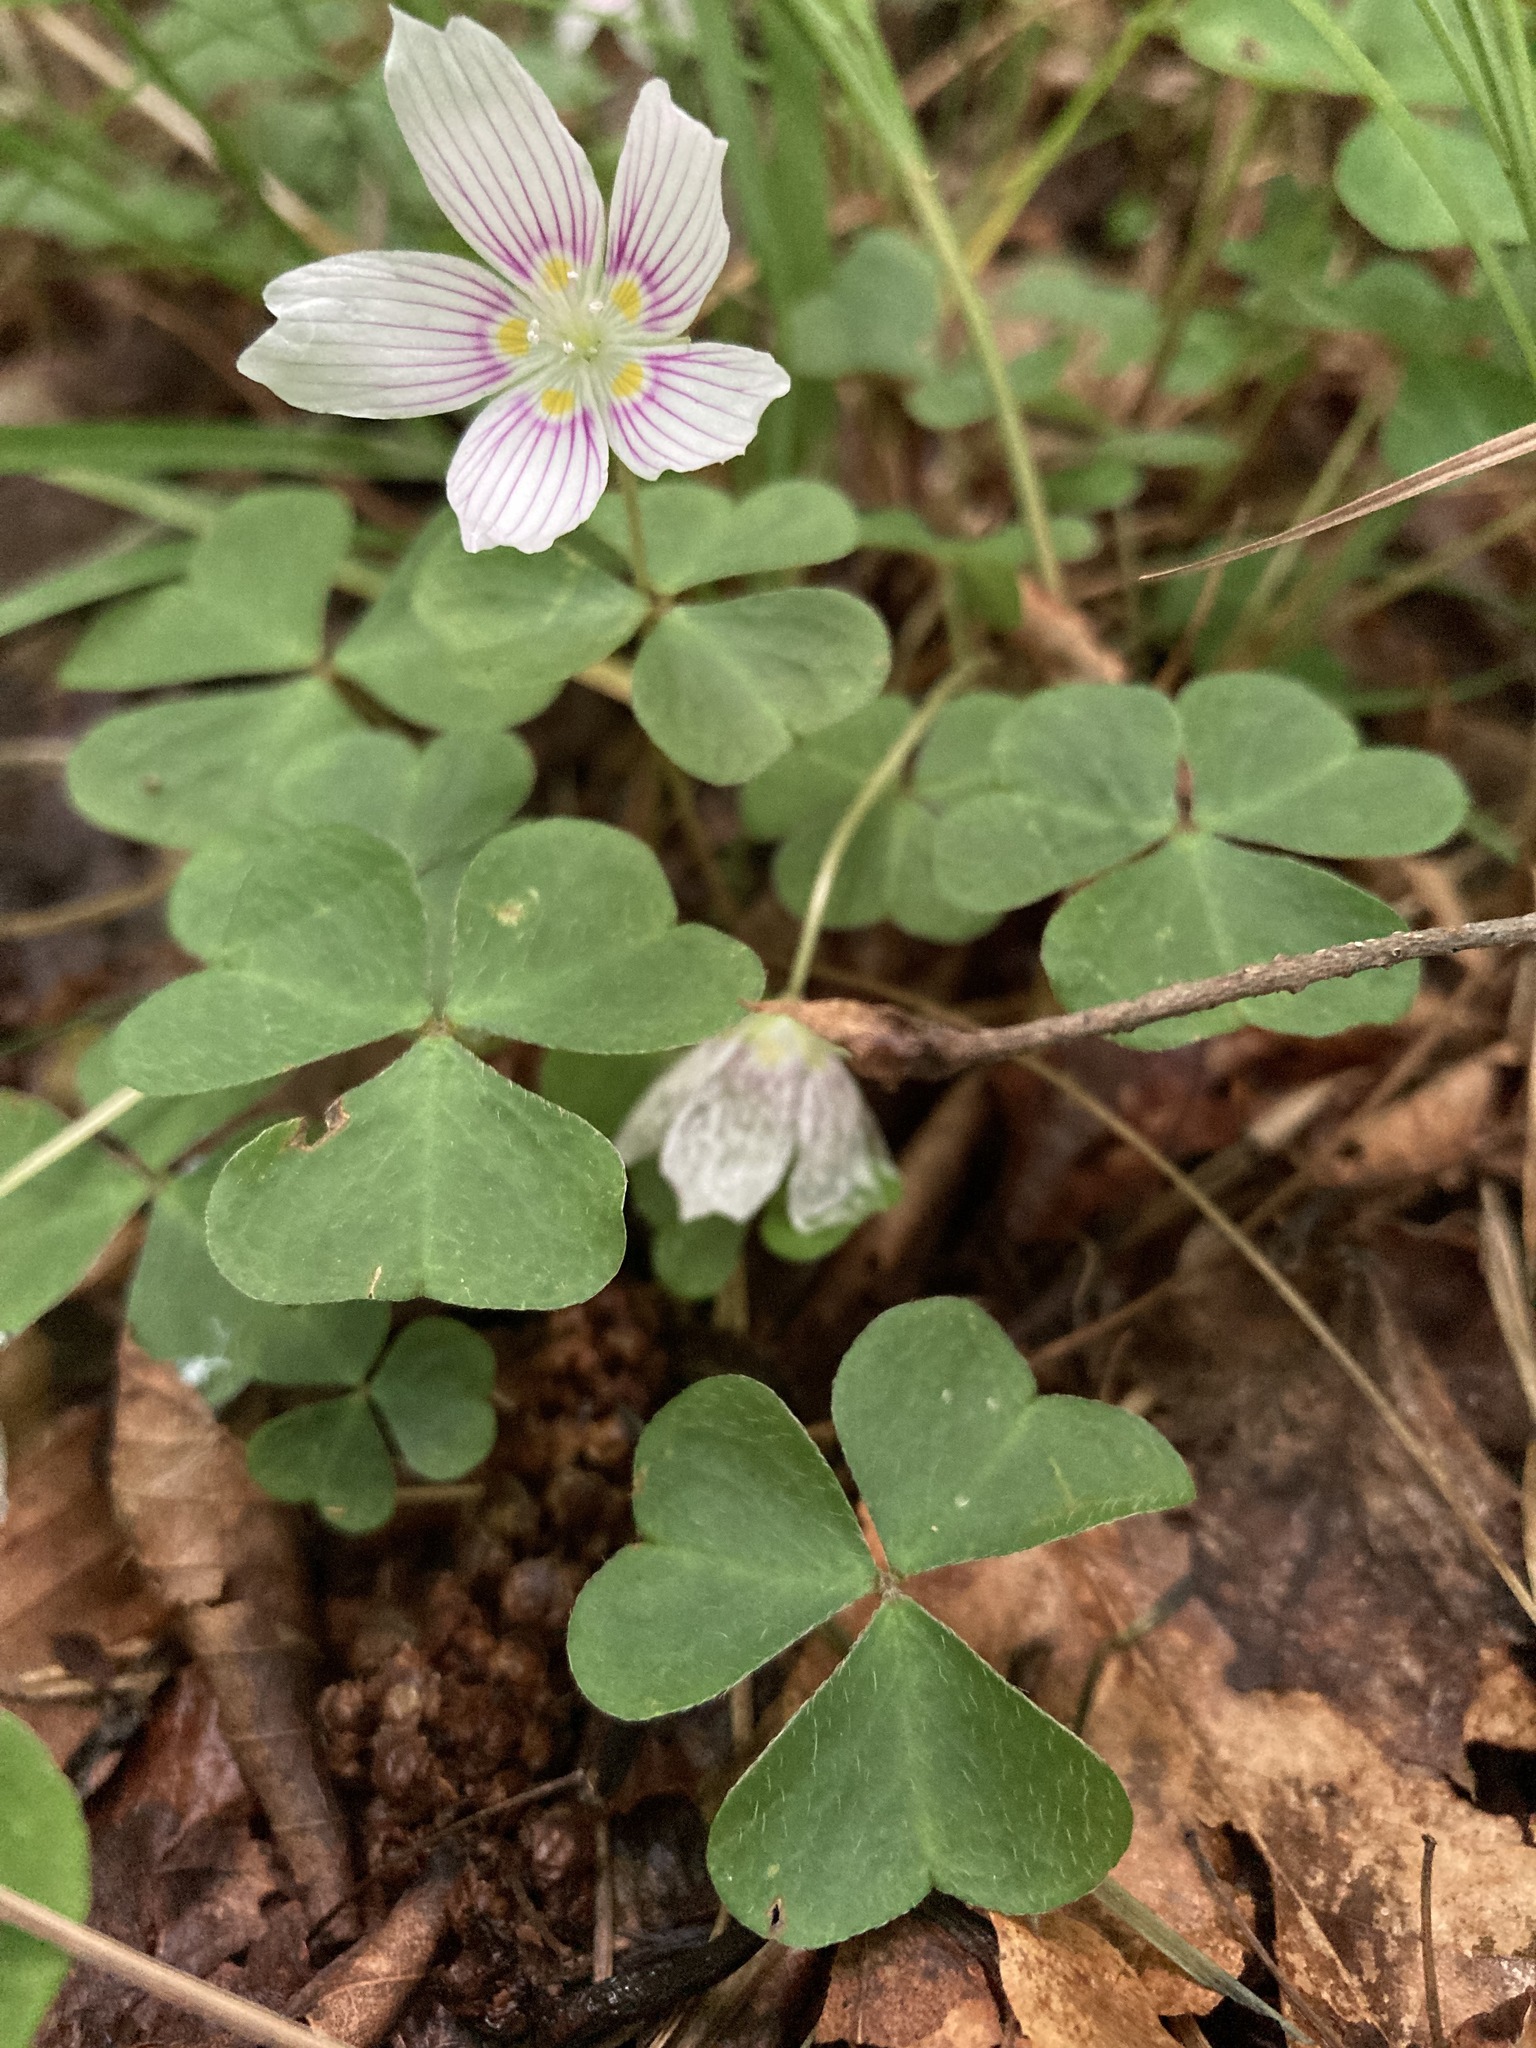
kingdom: Plantae
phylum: Tracheophyta
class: Magnoliopsida
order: Oxalidales
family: Oxalidaceae
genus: Oxalis
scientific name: Oxalis montana
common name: American wood-sorrel
